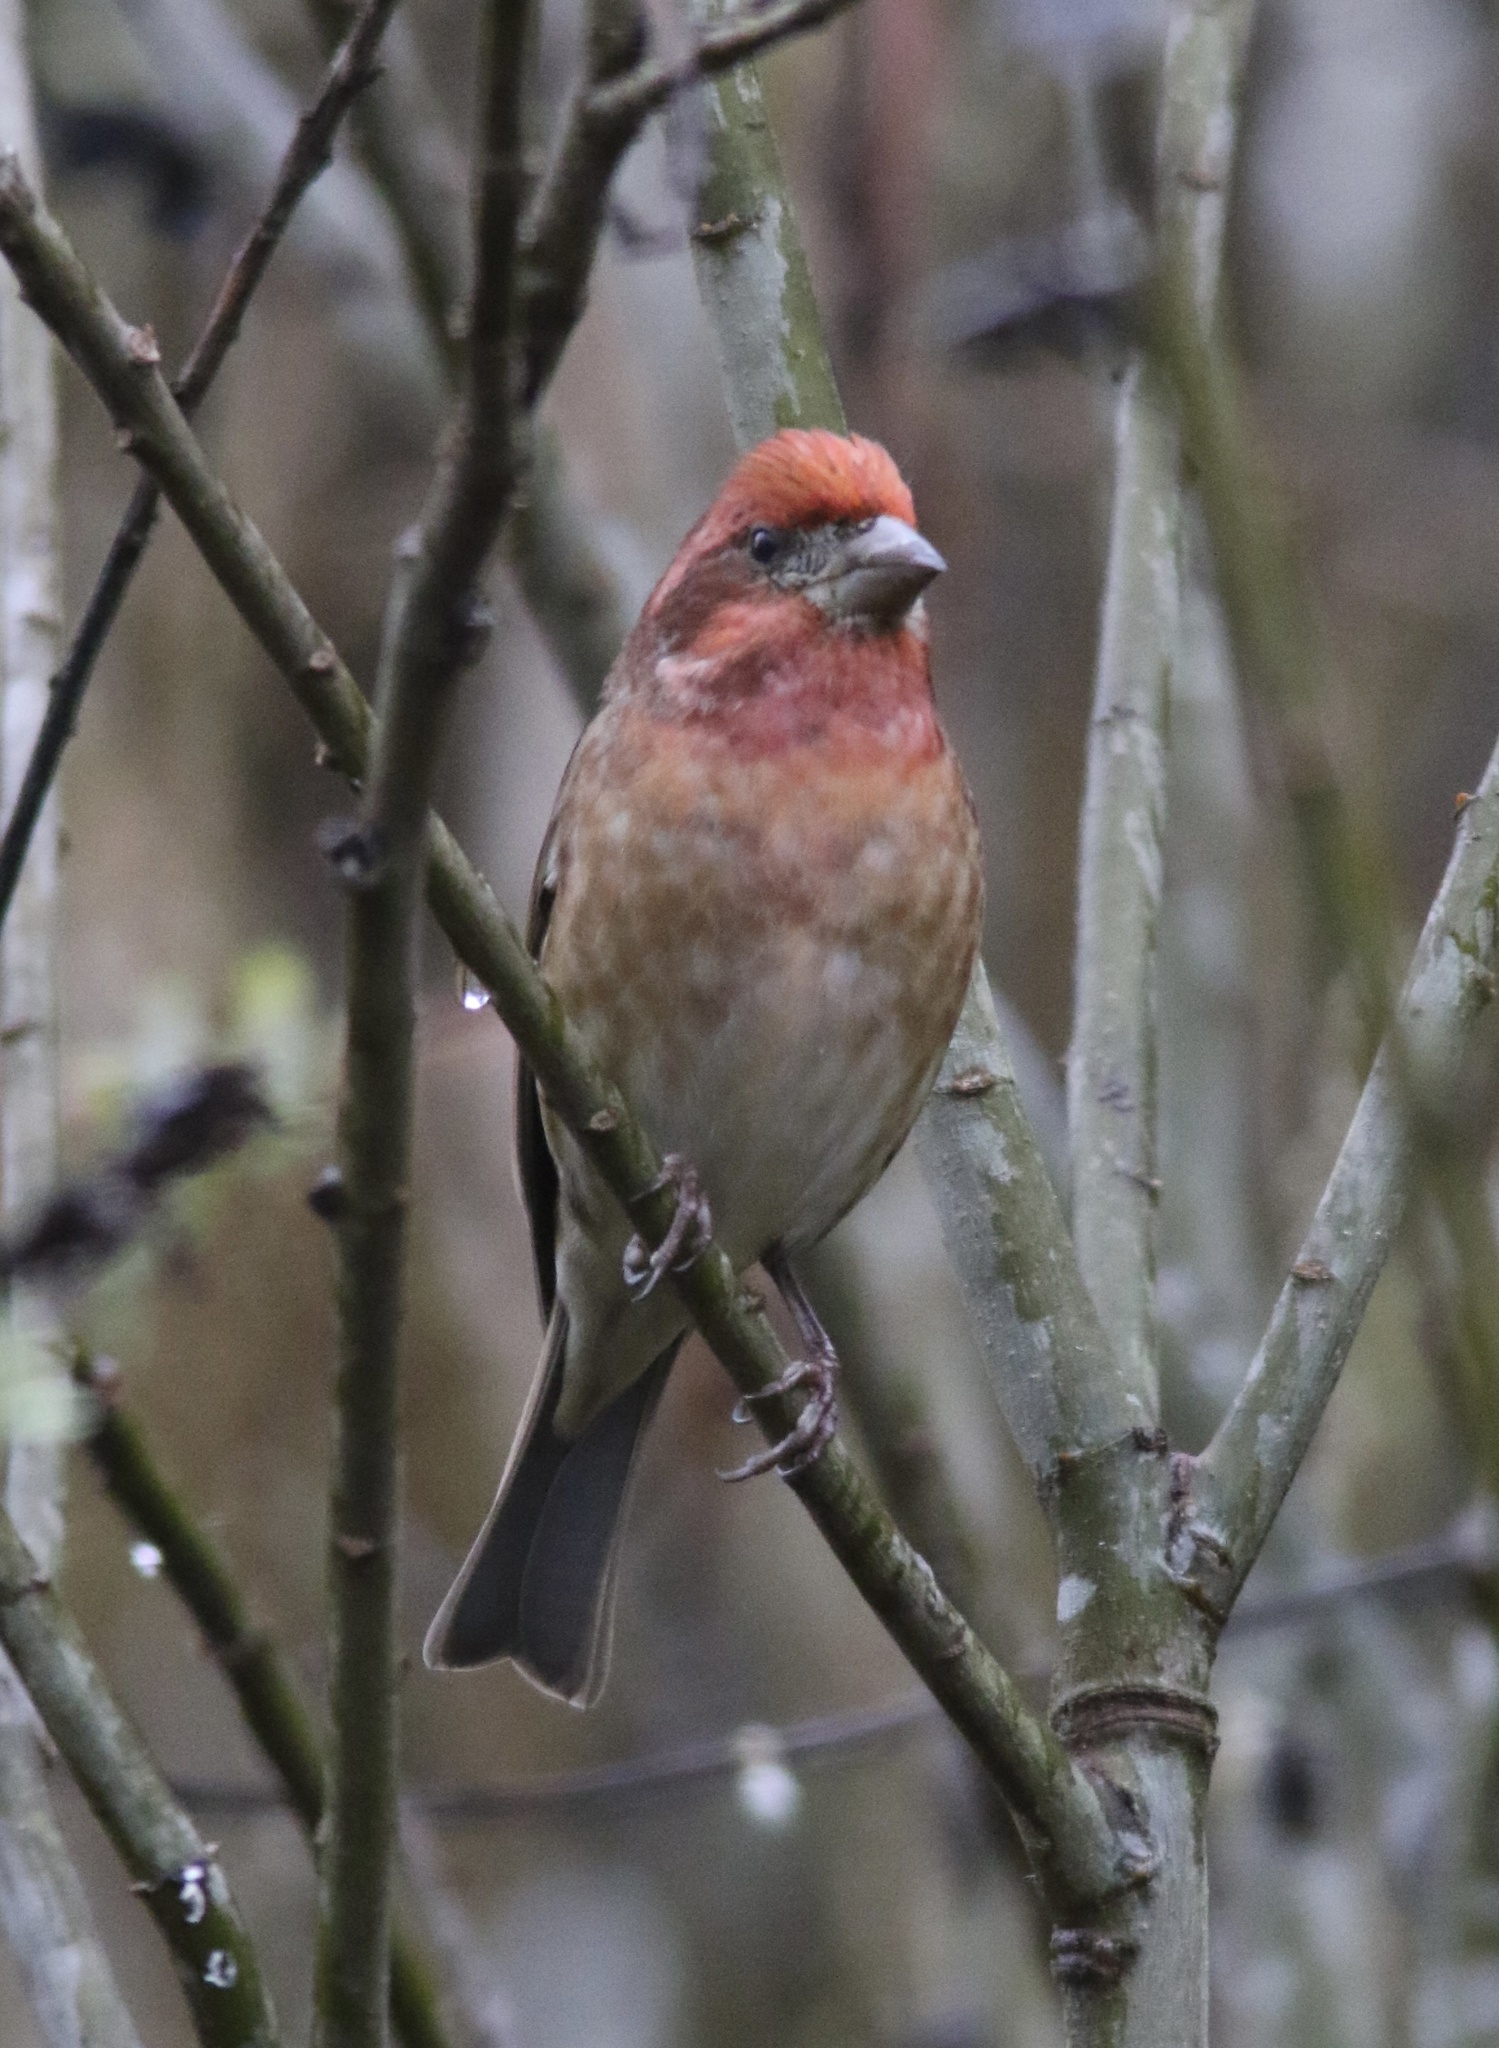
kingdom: Animalia
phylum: Chordata
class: Aves
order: Passeriformes
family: Fringillidae
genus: Haemorhous
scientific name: Haemorhous purpureus
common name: Purple finch
